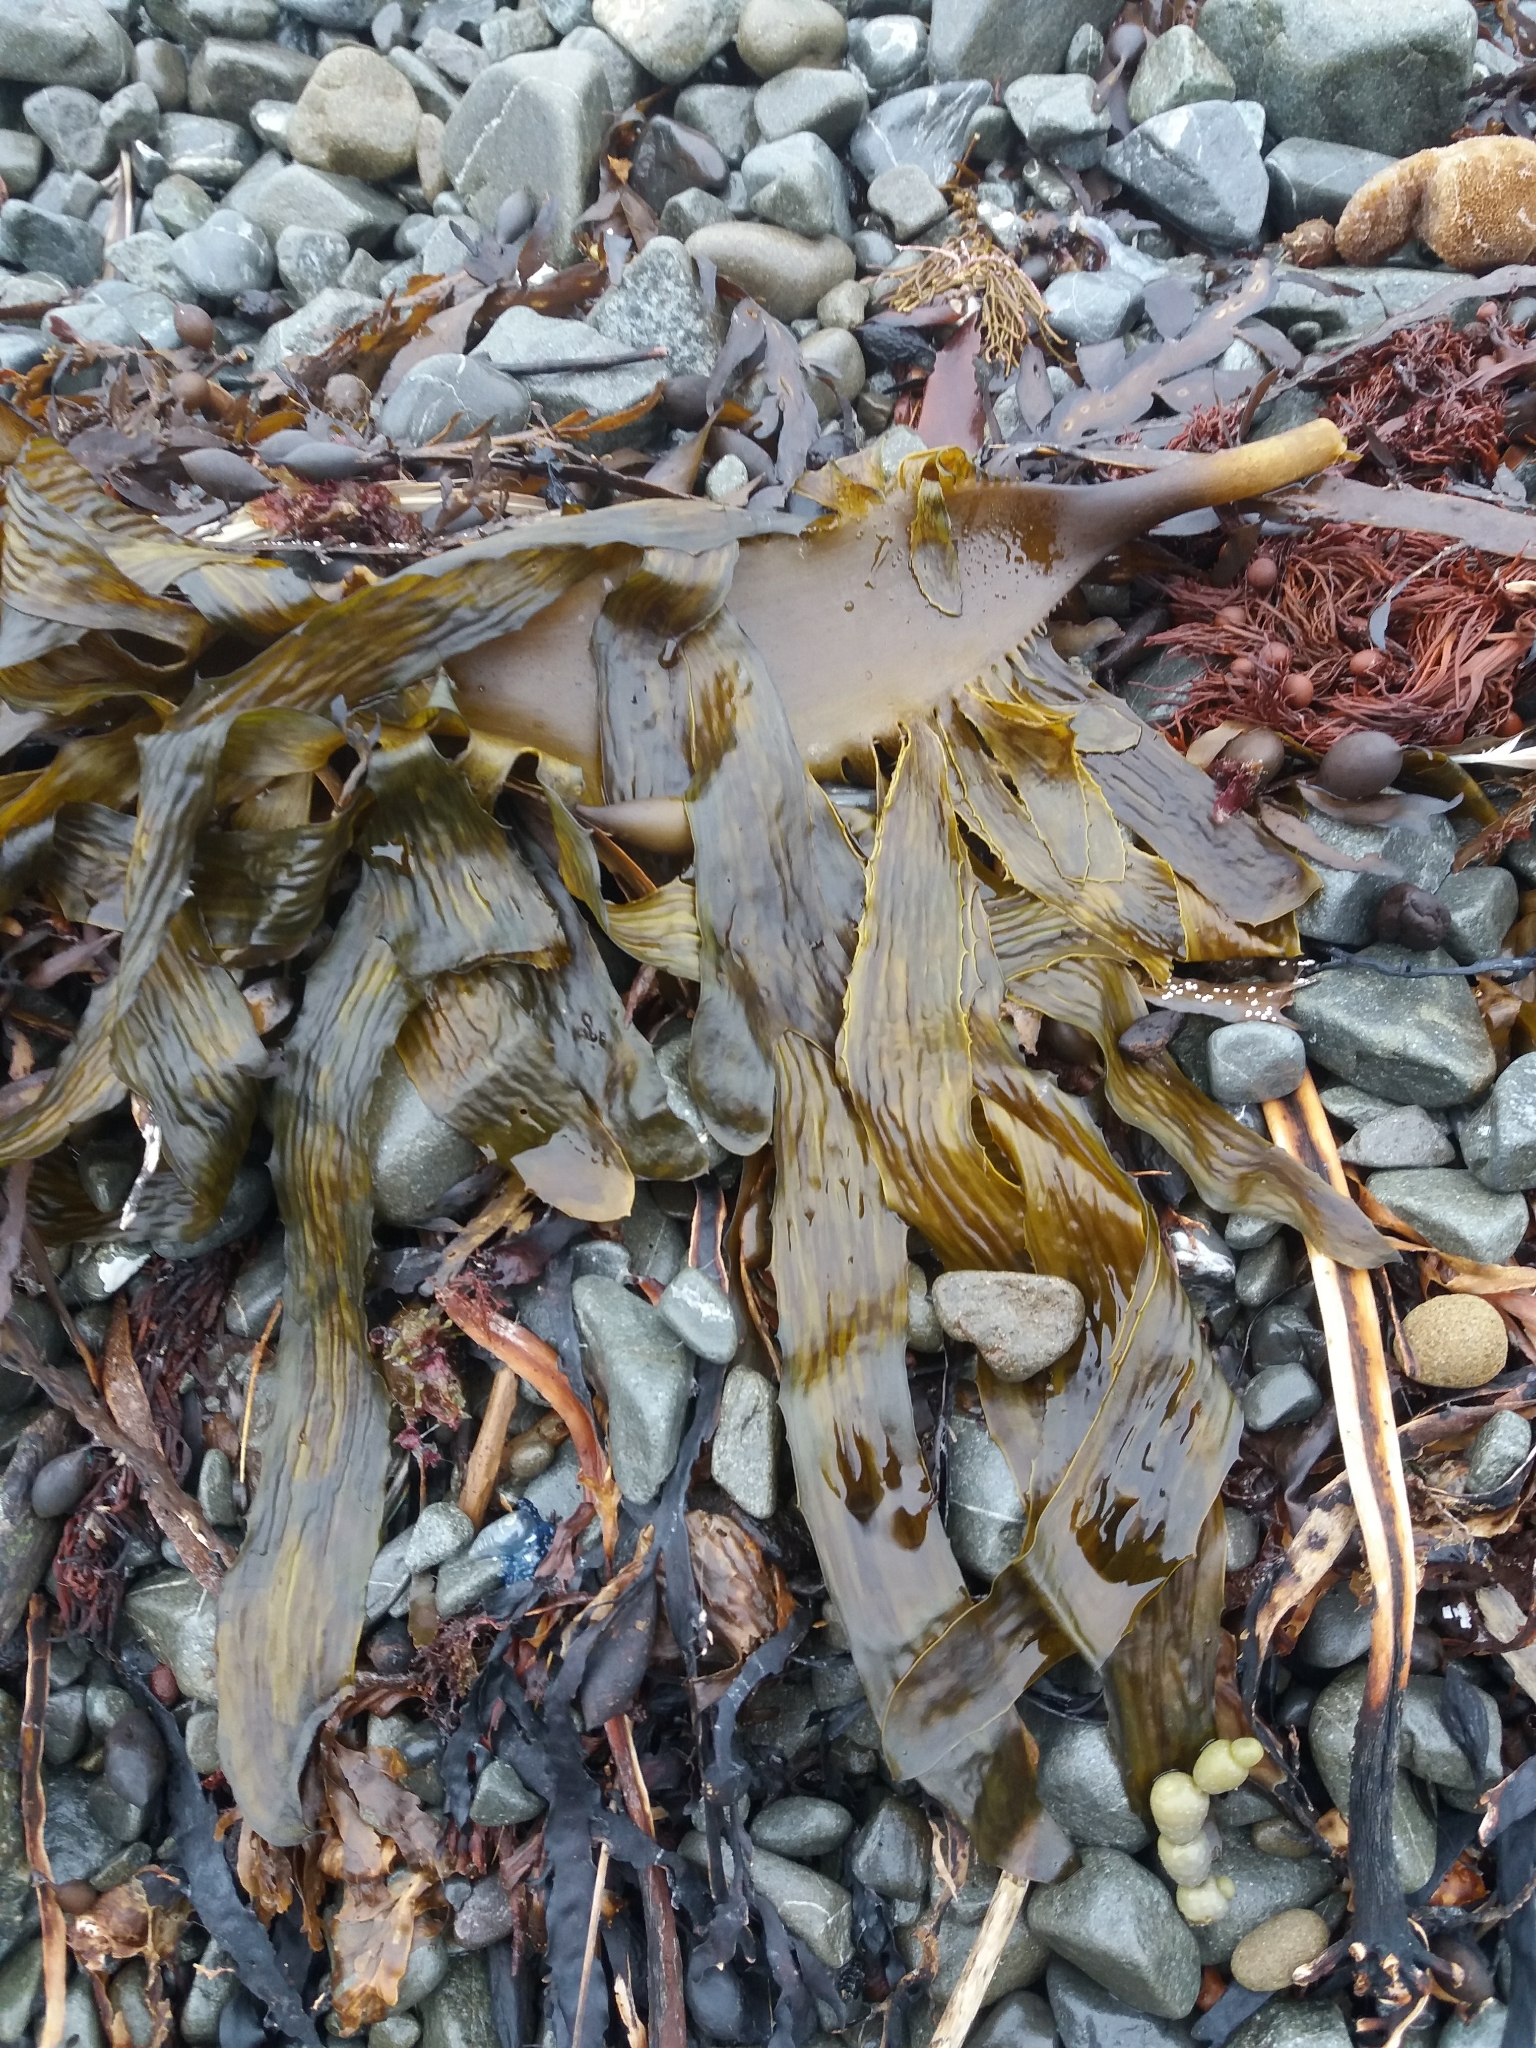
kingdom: Chromista
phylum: Ochrophyta
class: Phaeophyceae
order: Laminariales
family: Lessoniaceae
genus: Ecklonia
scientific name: Ecklonia radiata
